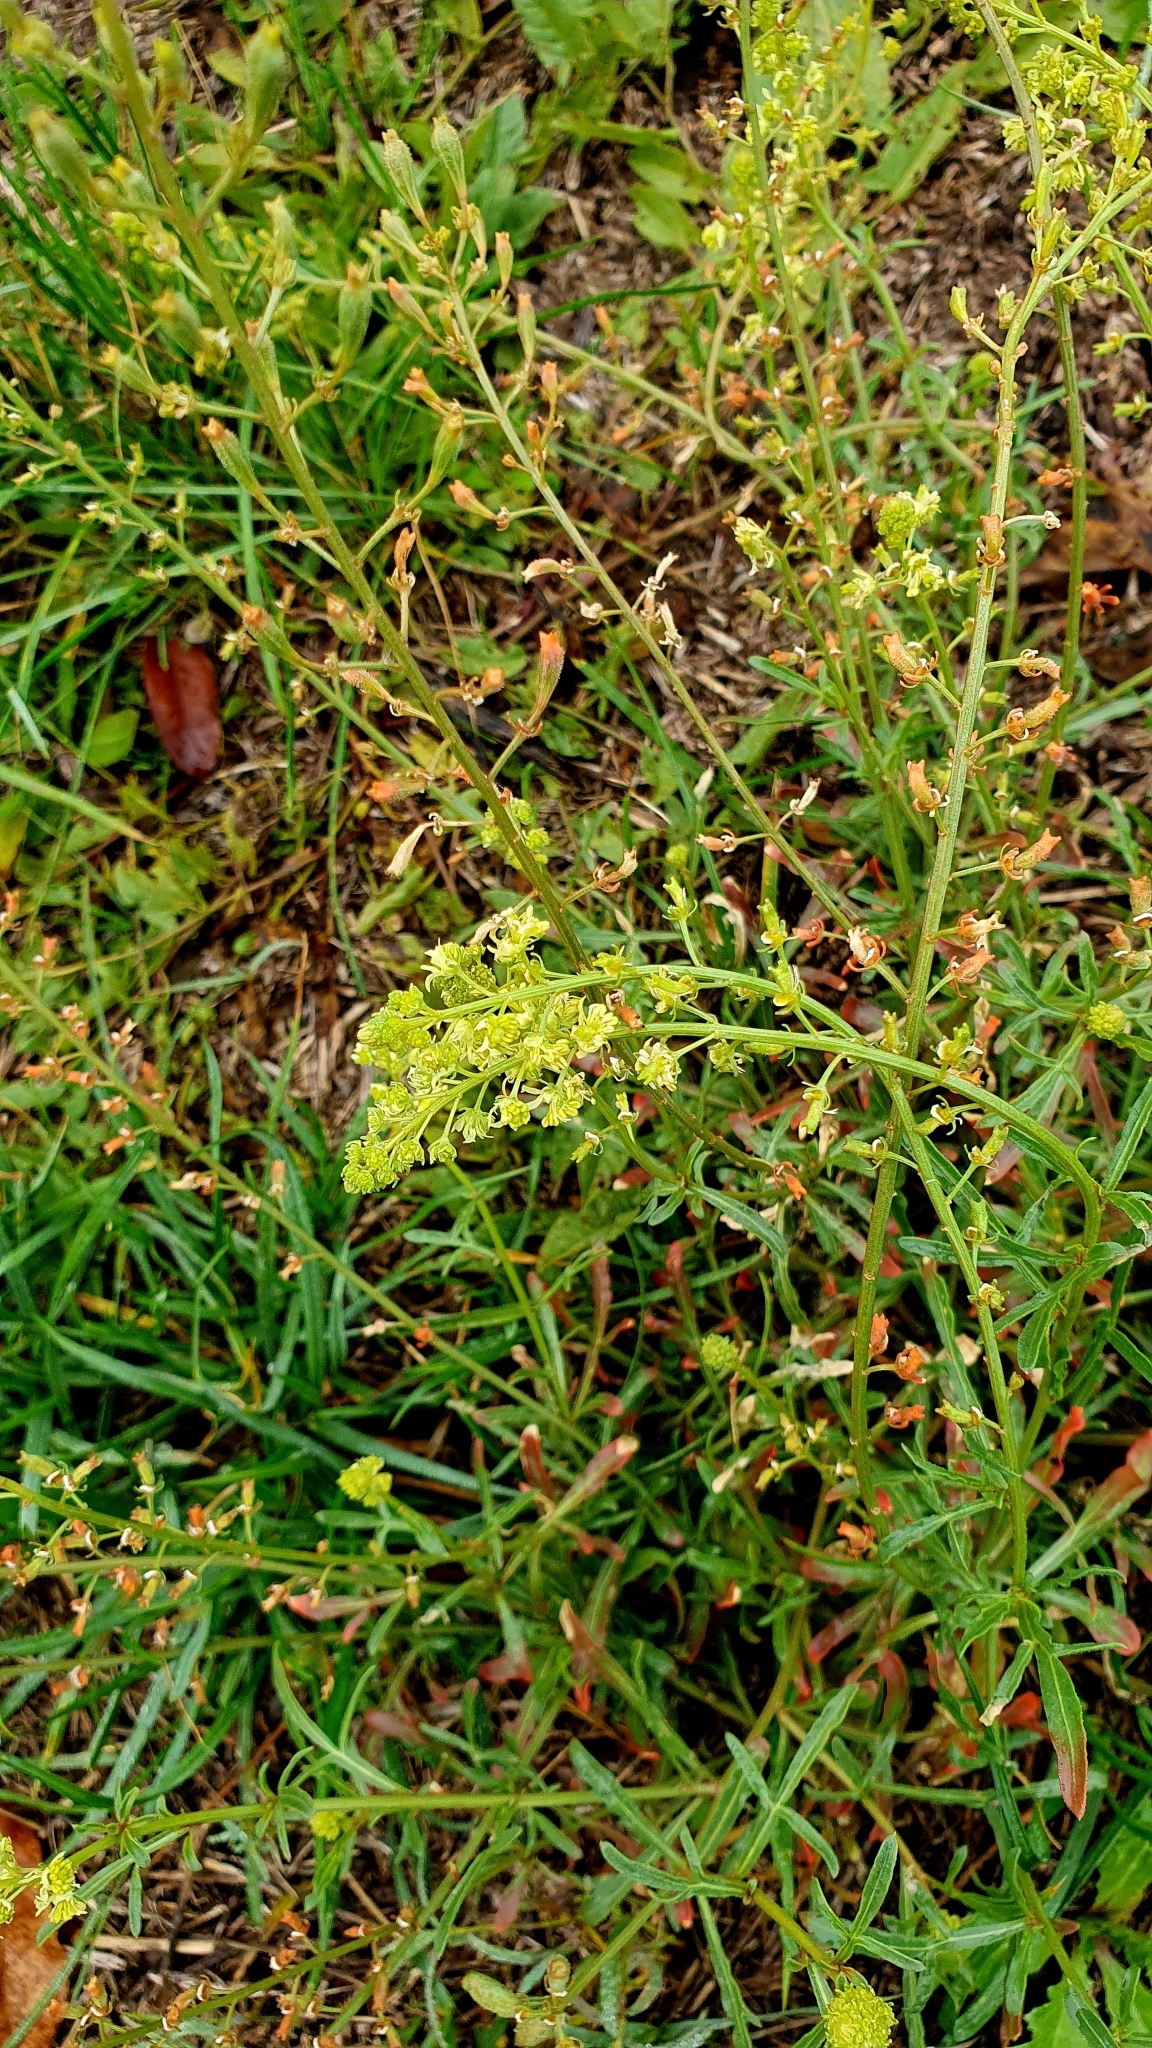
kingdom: Plantae
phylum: Tracheophyta
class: Magnoliopsida
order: Brassicales
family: Resedaceae
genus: Reseda
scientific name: Reseda lutea
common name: Wild mignonette
